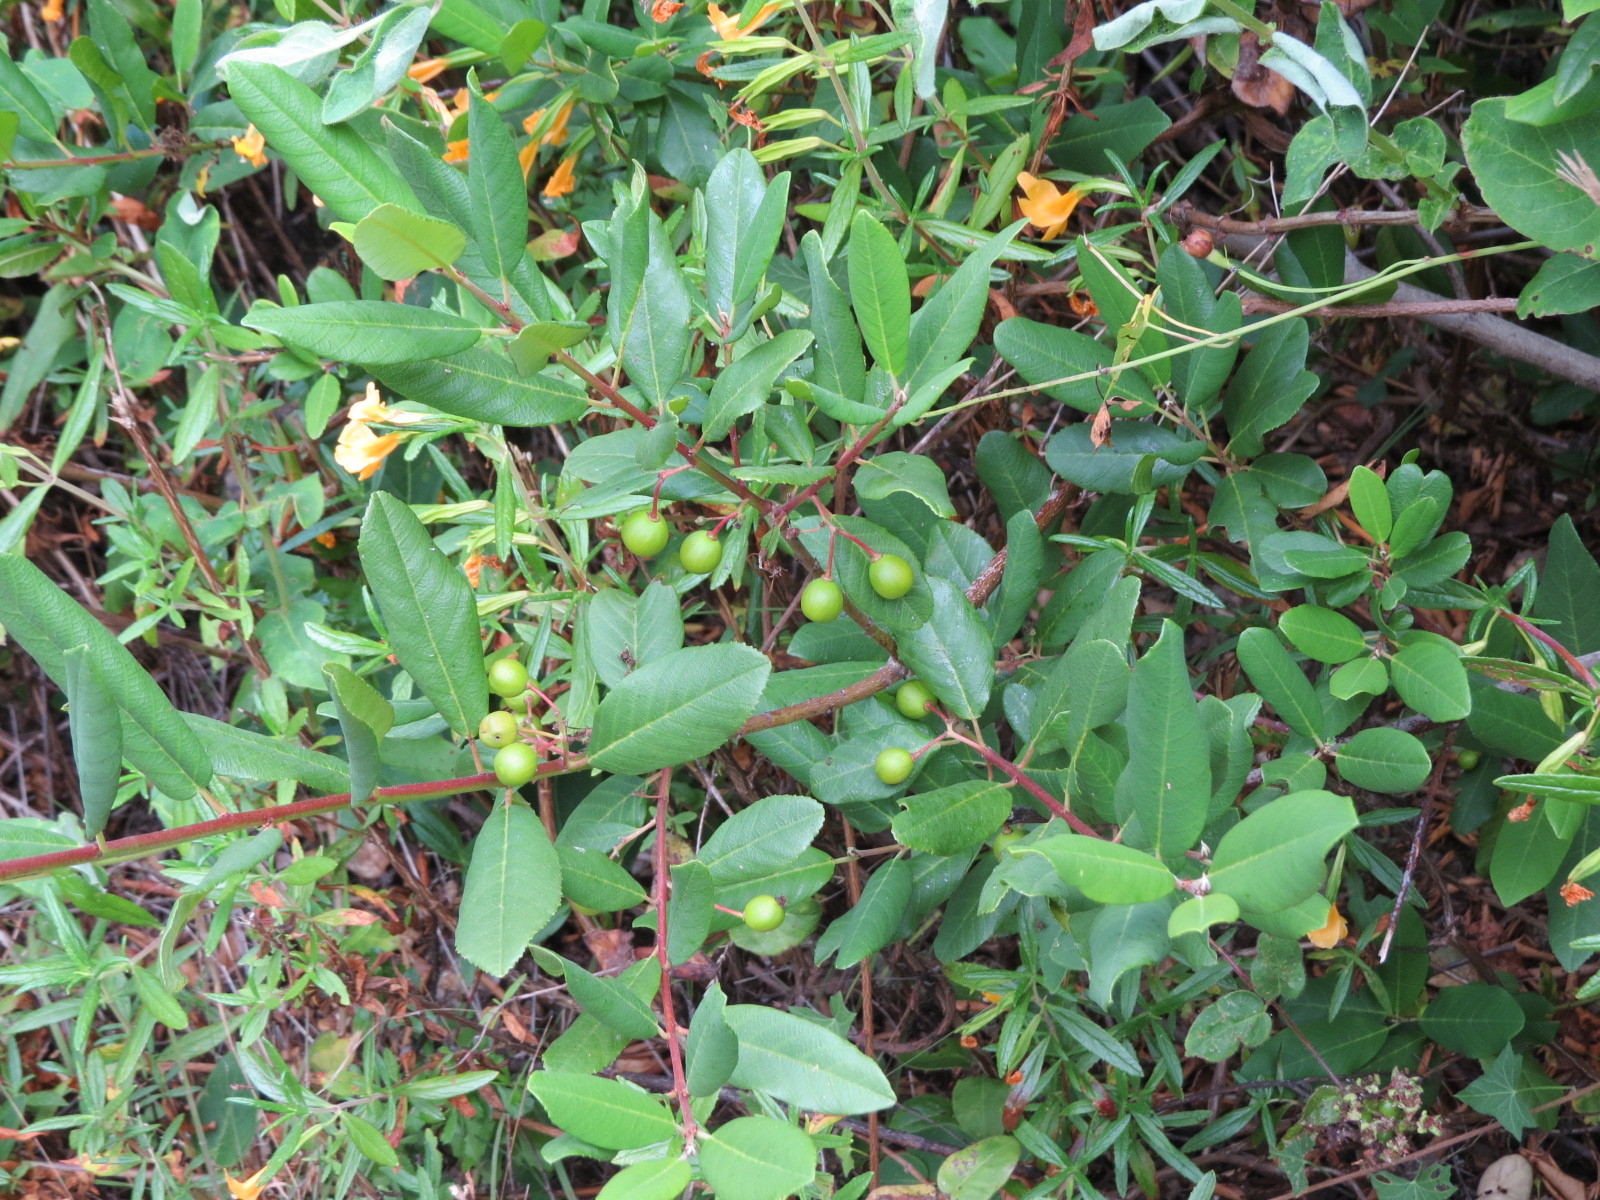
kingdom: Plantae
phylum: Tracheophyta
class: Magnoliopsida
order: Rosales
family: Rhamnaceae
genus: Frangula
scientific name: Frangula californica
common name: California buckthorn
